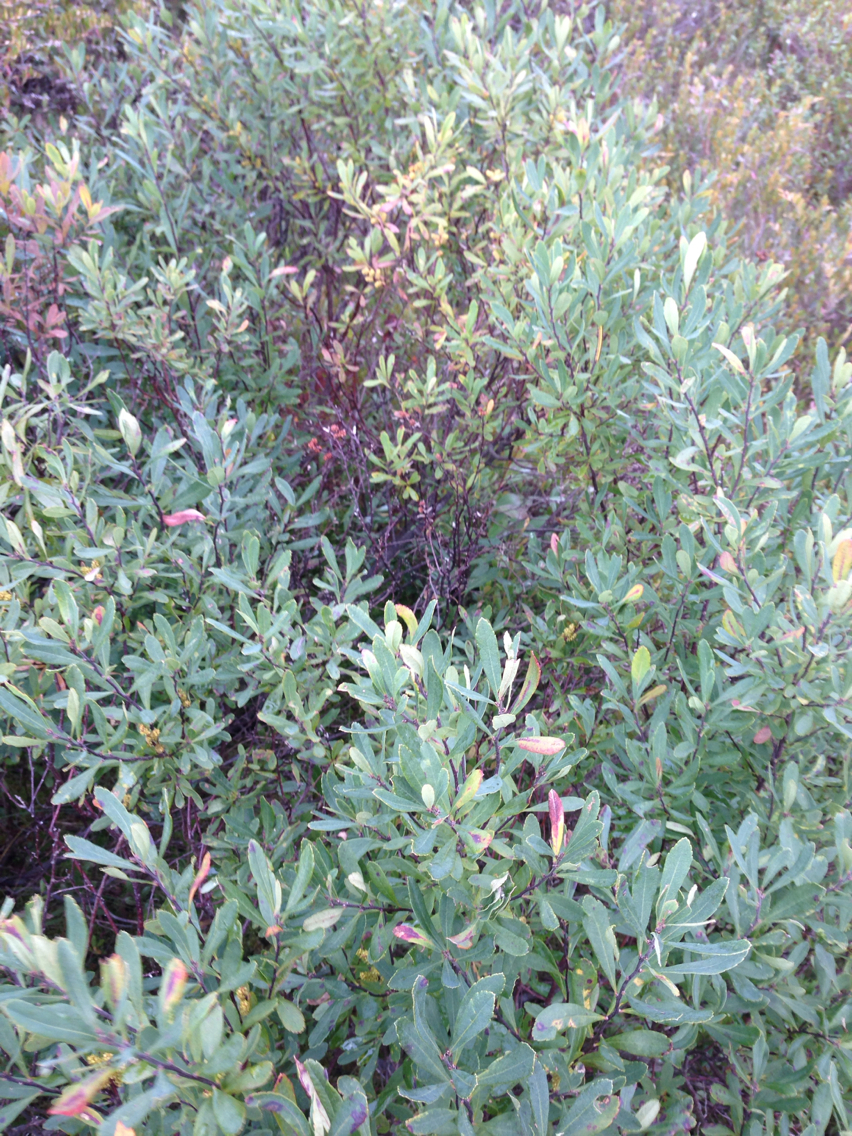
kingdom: Plantae
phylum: Tracheophyta
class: Magnoliopsida
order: Fagales
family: Myricaceae
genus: Myrica
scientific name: Myrica gale
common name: Sweet gale
